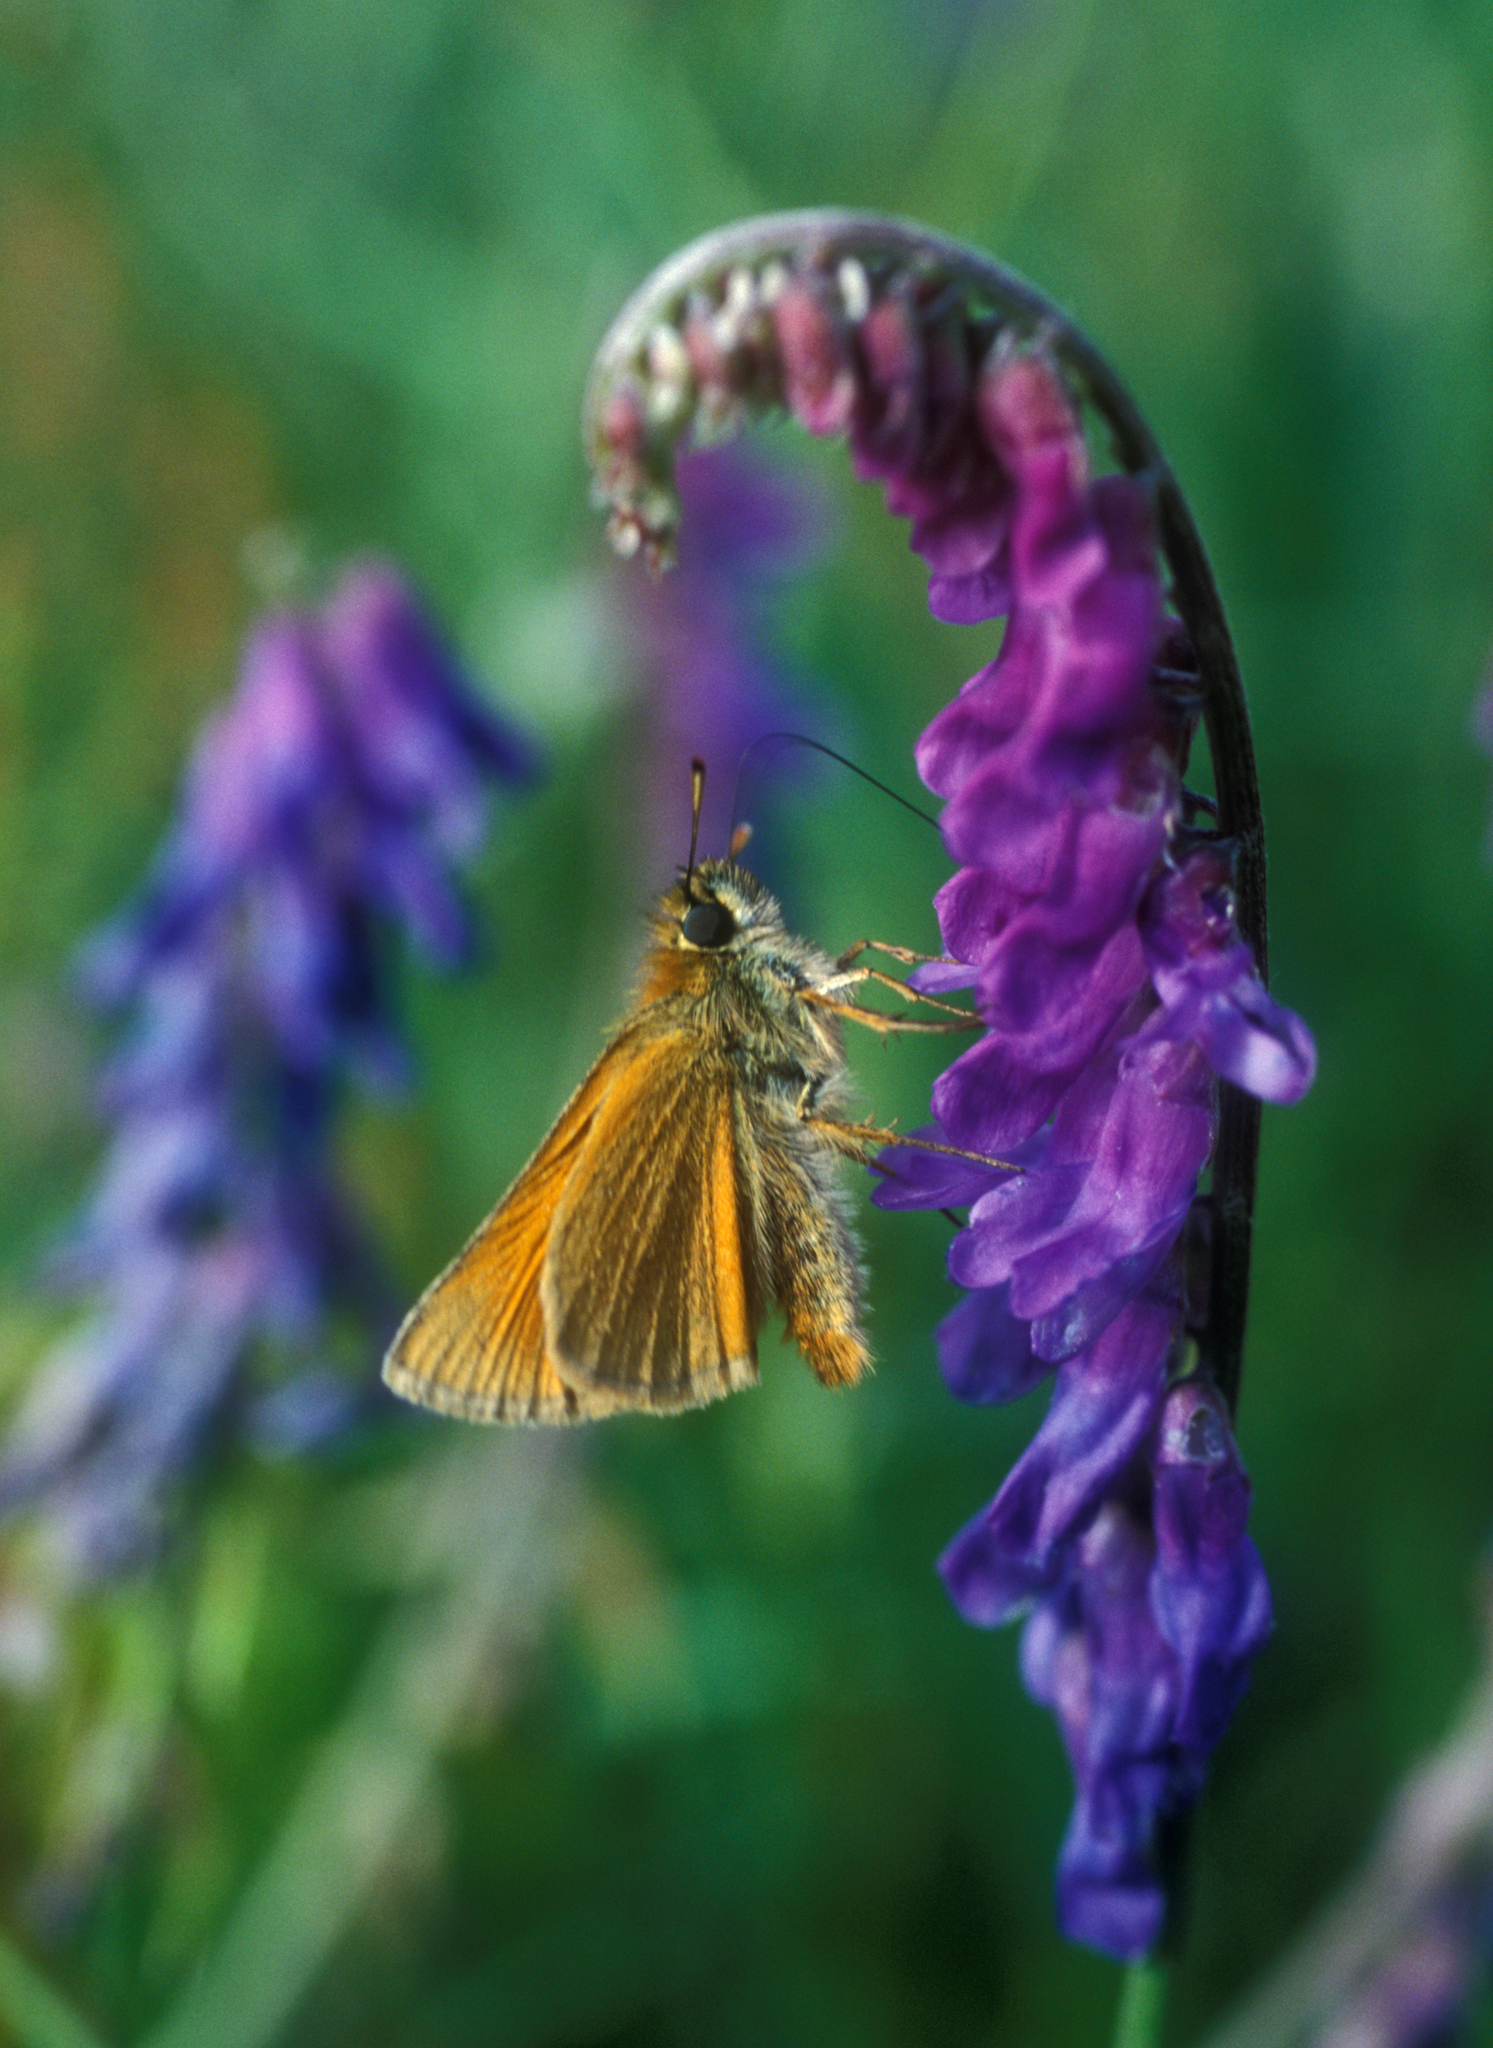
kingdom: Plantae
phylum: Tracheophyta
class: Magnoliopsida
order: Fabales
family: Fabaceae
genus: Vicia
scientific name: Vicia cracca
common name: Bird vetch
